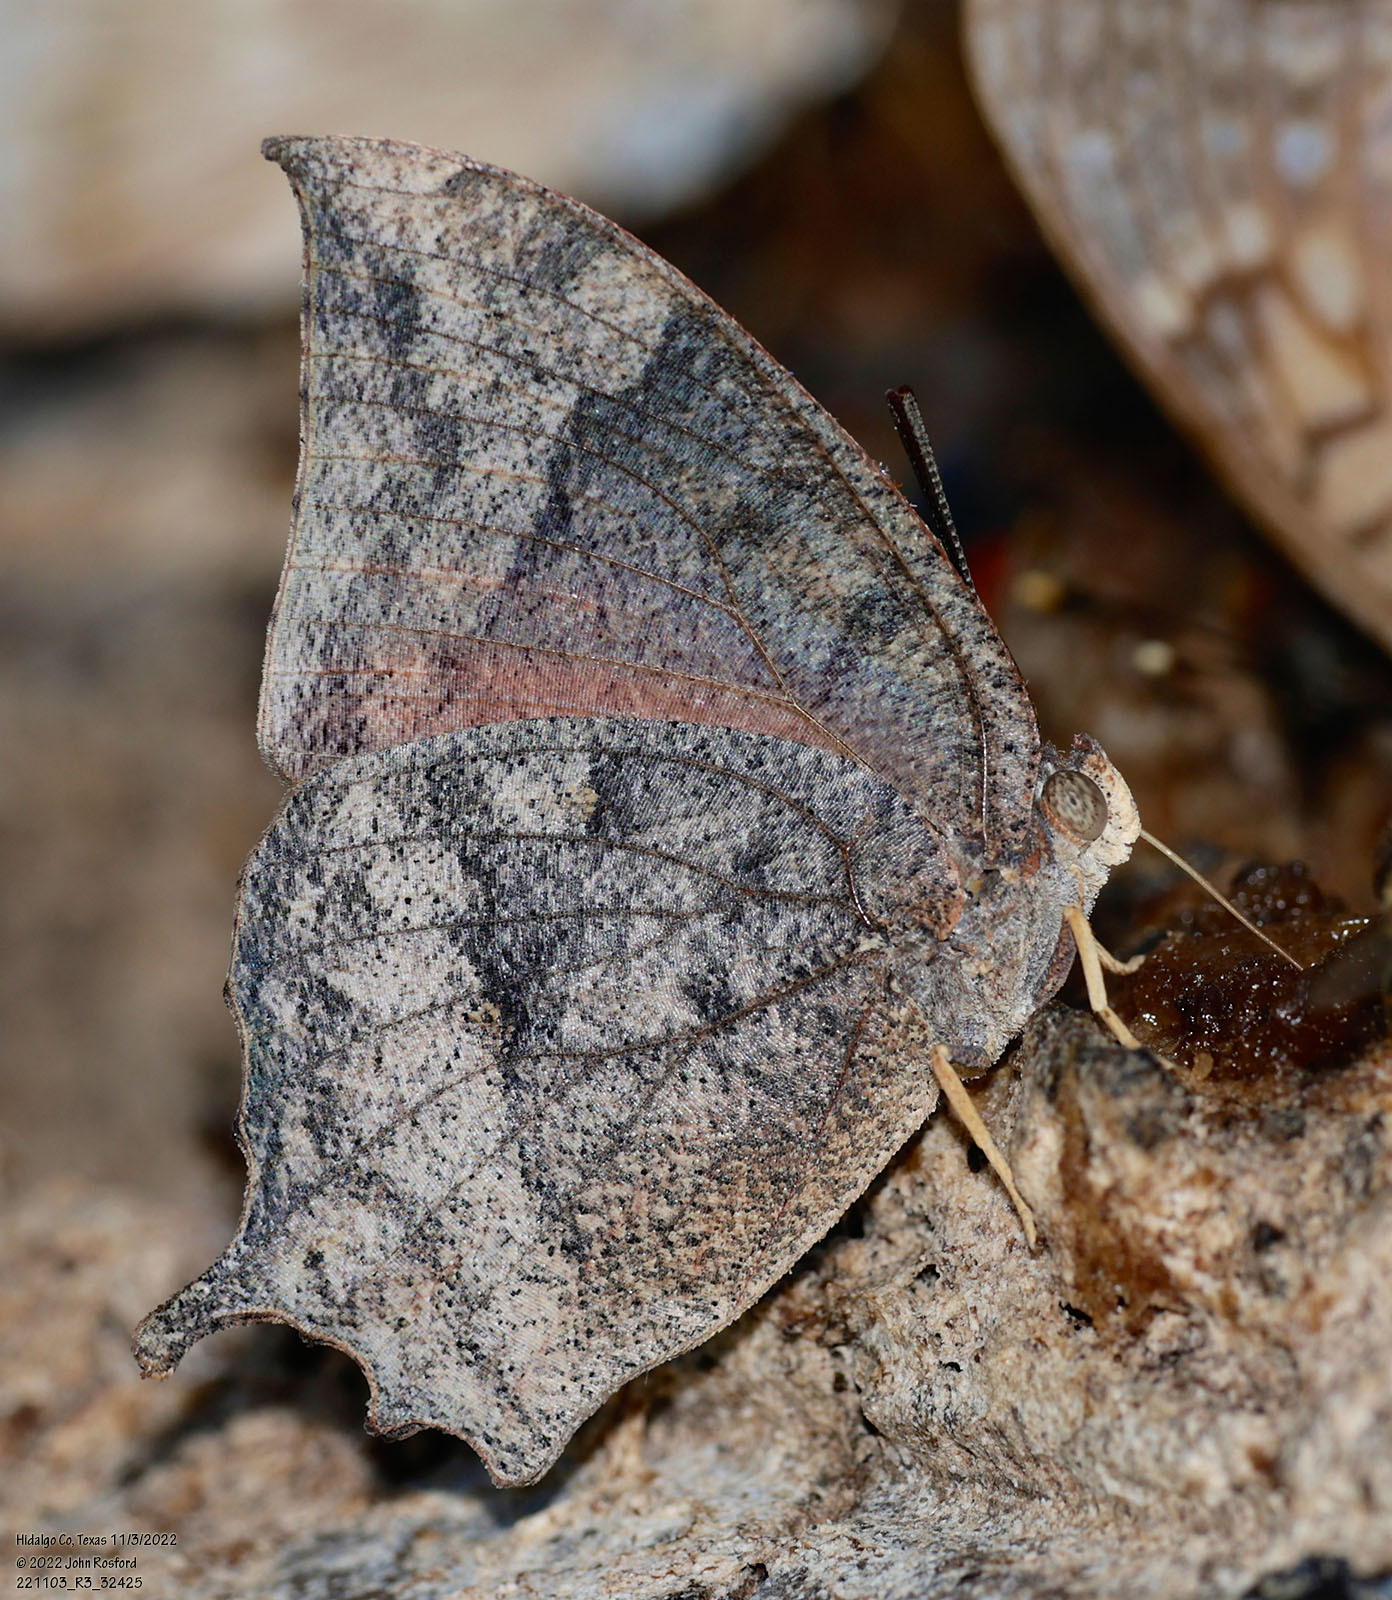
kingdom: Animalia
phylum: Arthropoda
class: Insecta
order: Lepidoptera
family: Nymphalidae
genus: Anaea
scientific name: Anaea aidea
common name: Tropical leafwing
